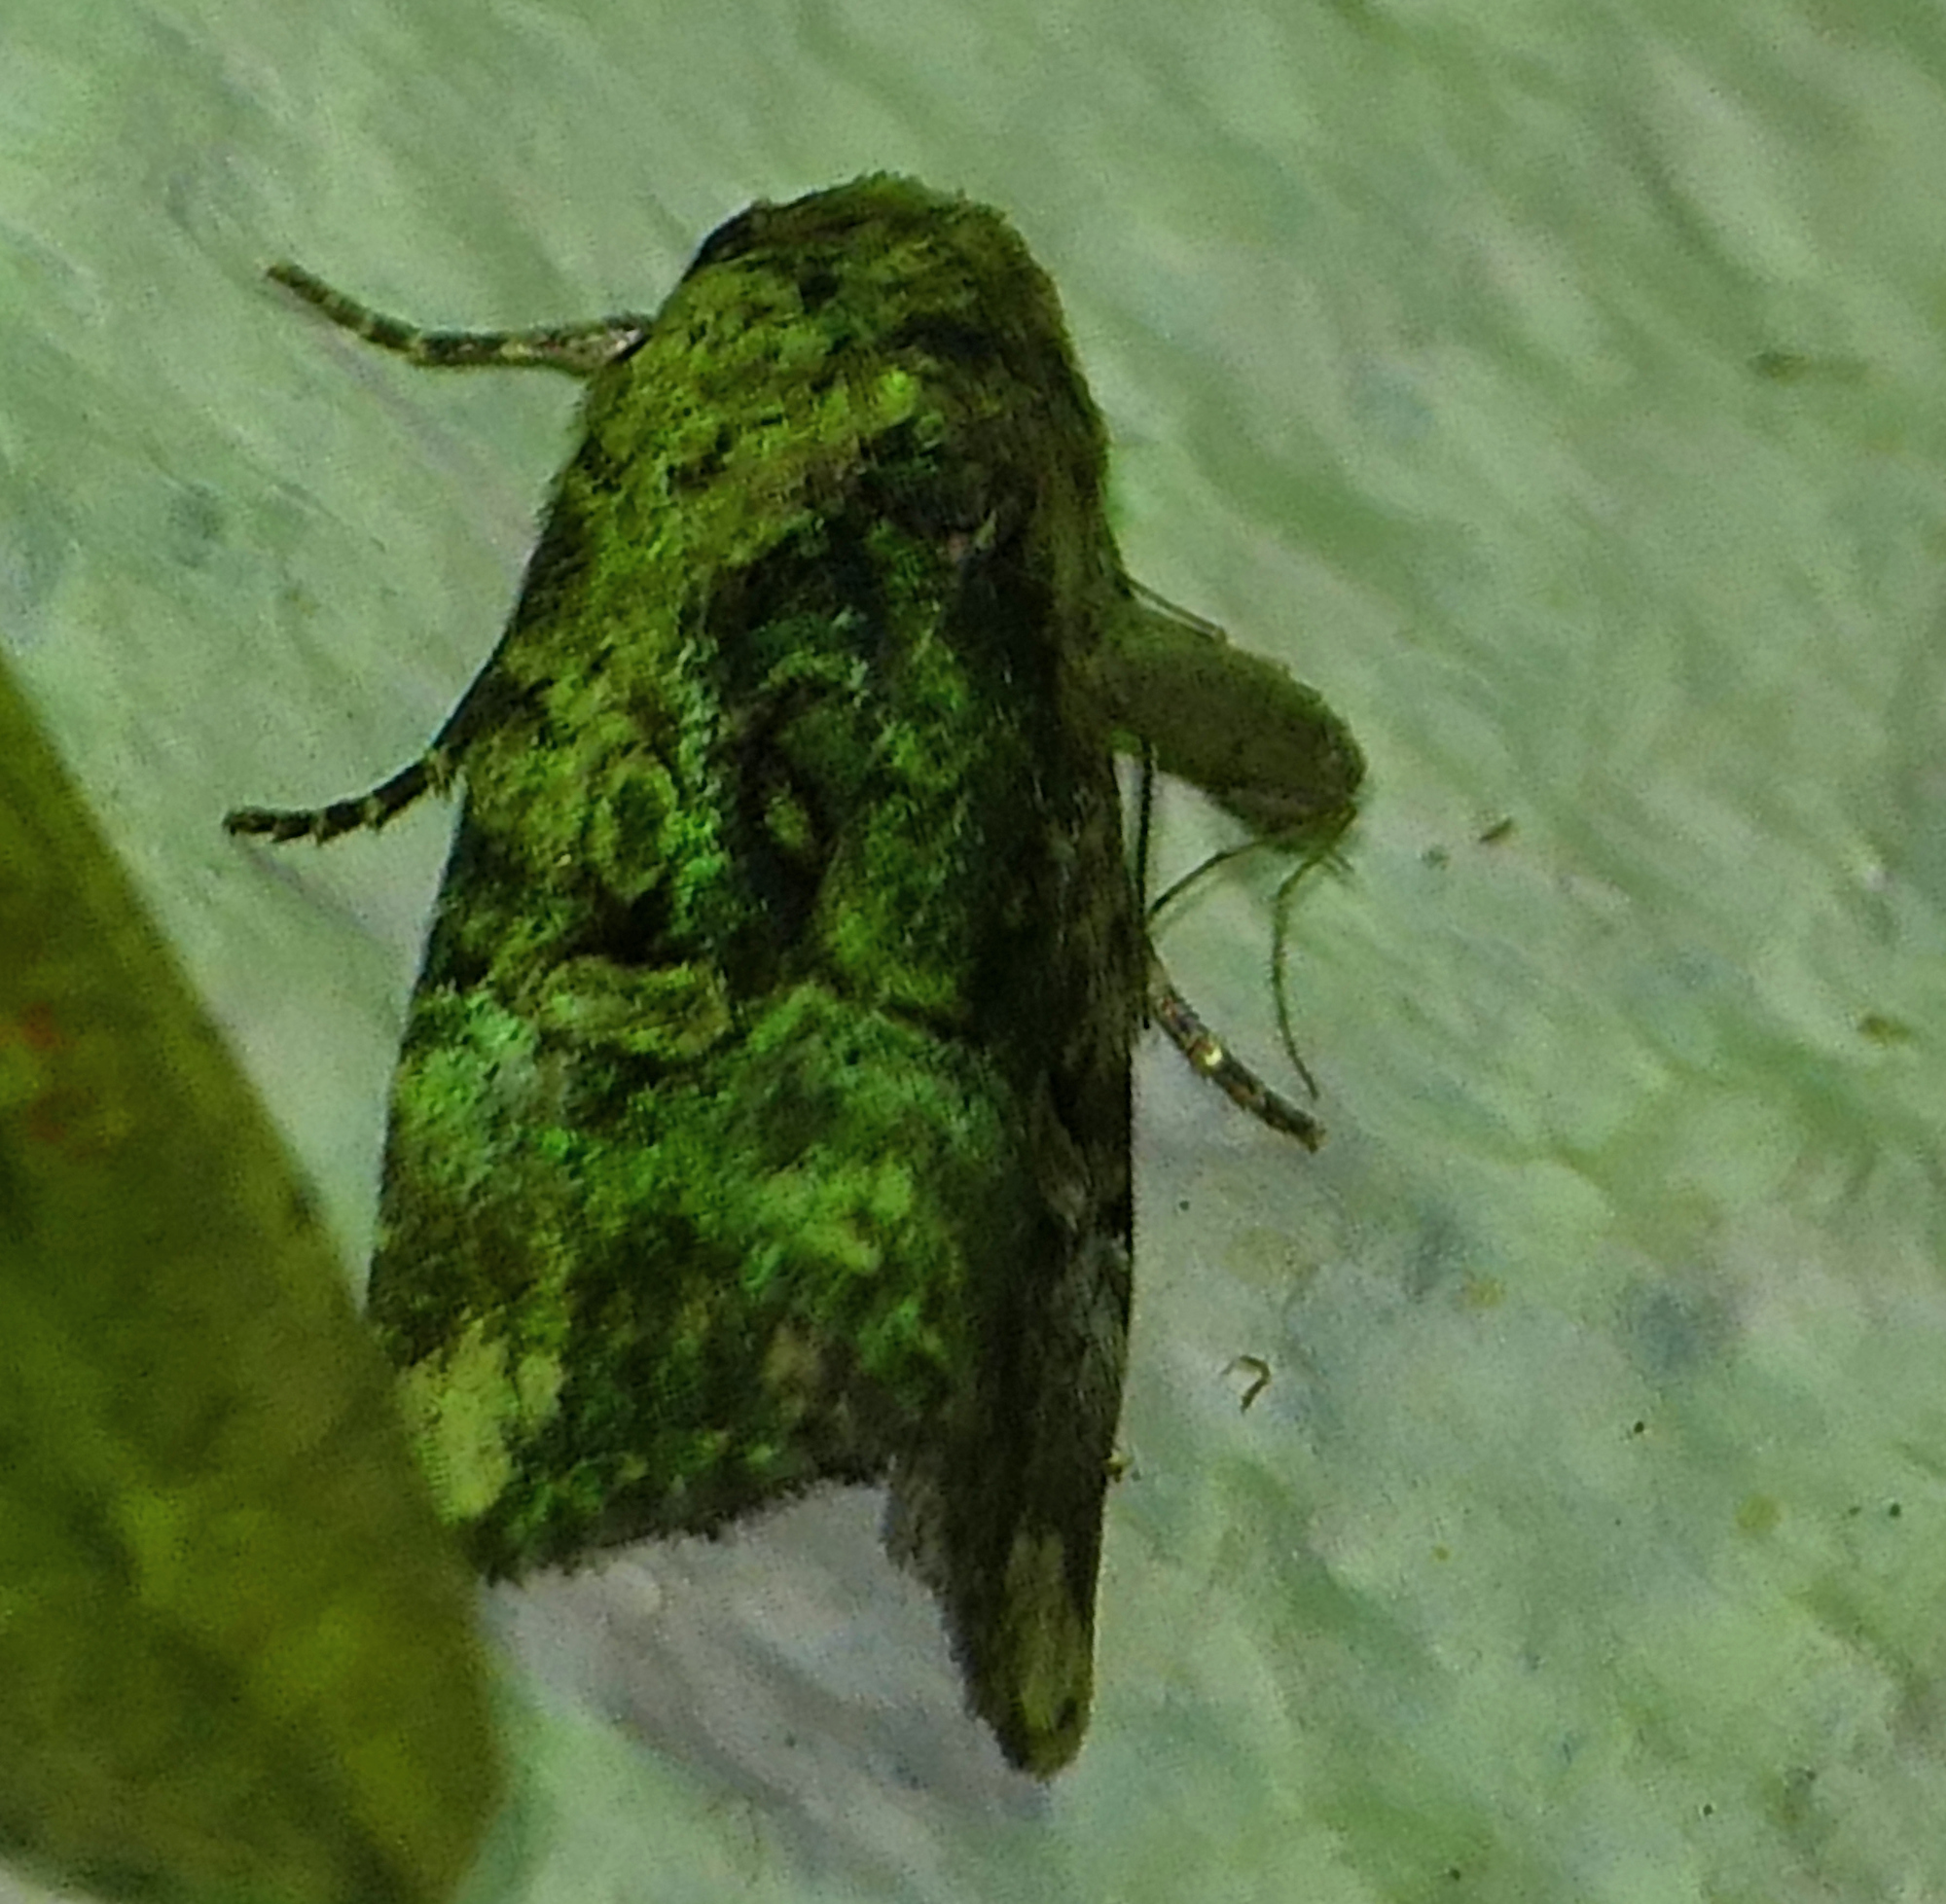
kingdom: Animalia
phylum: Arthropoda
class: Insecta
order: Lepidoptera
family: Noctuidae
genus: Elaphria
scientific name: Elaphria chalcedonia
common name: Chalcedony midget
